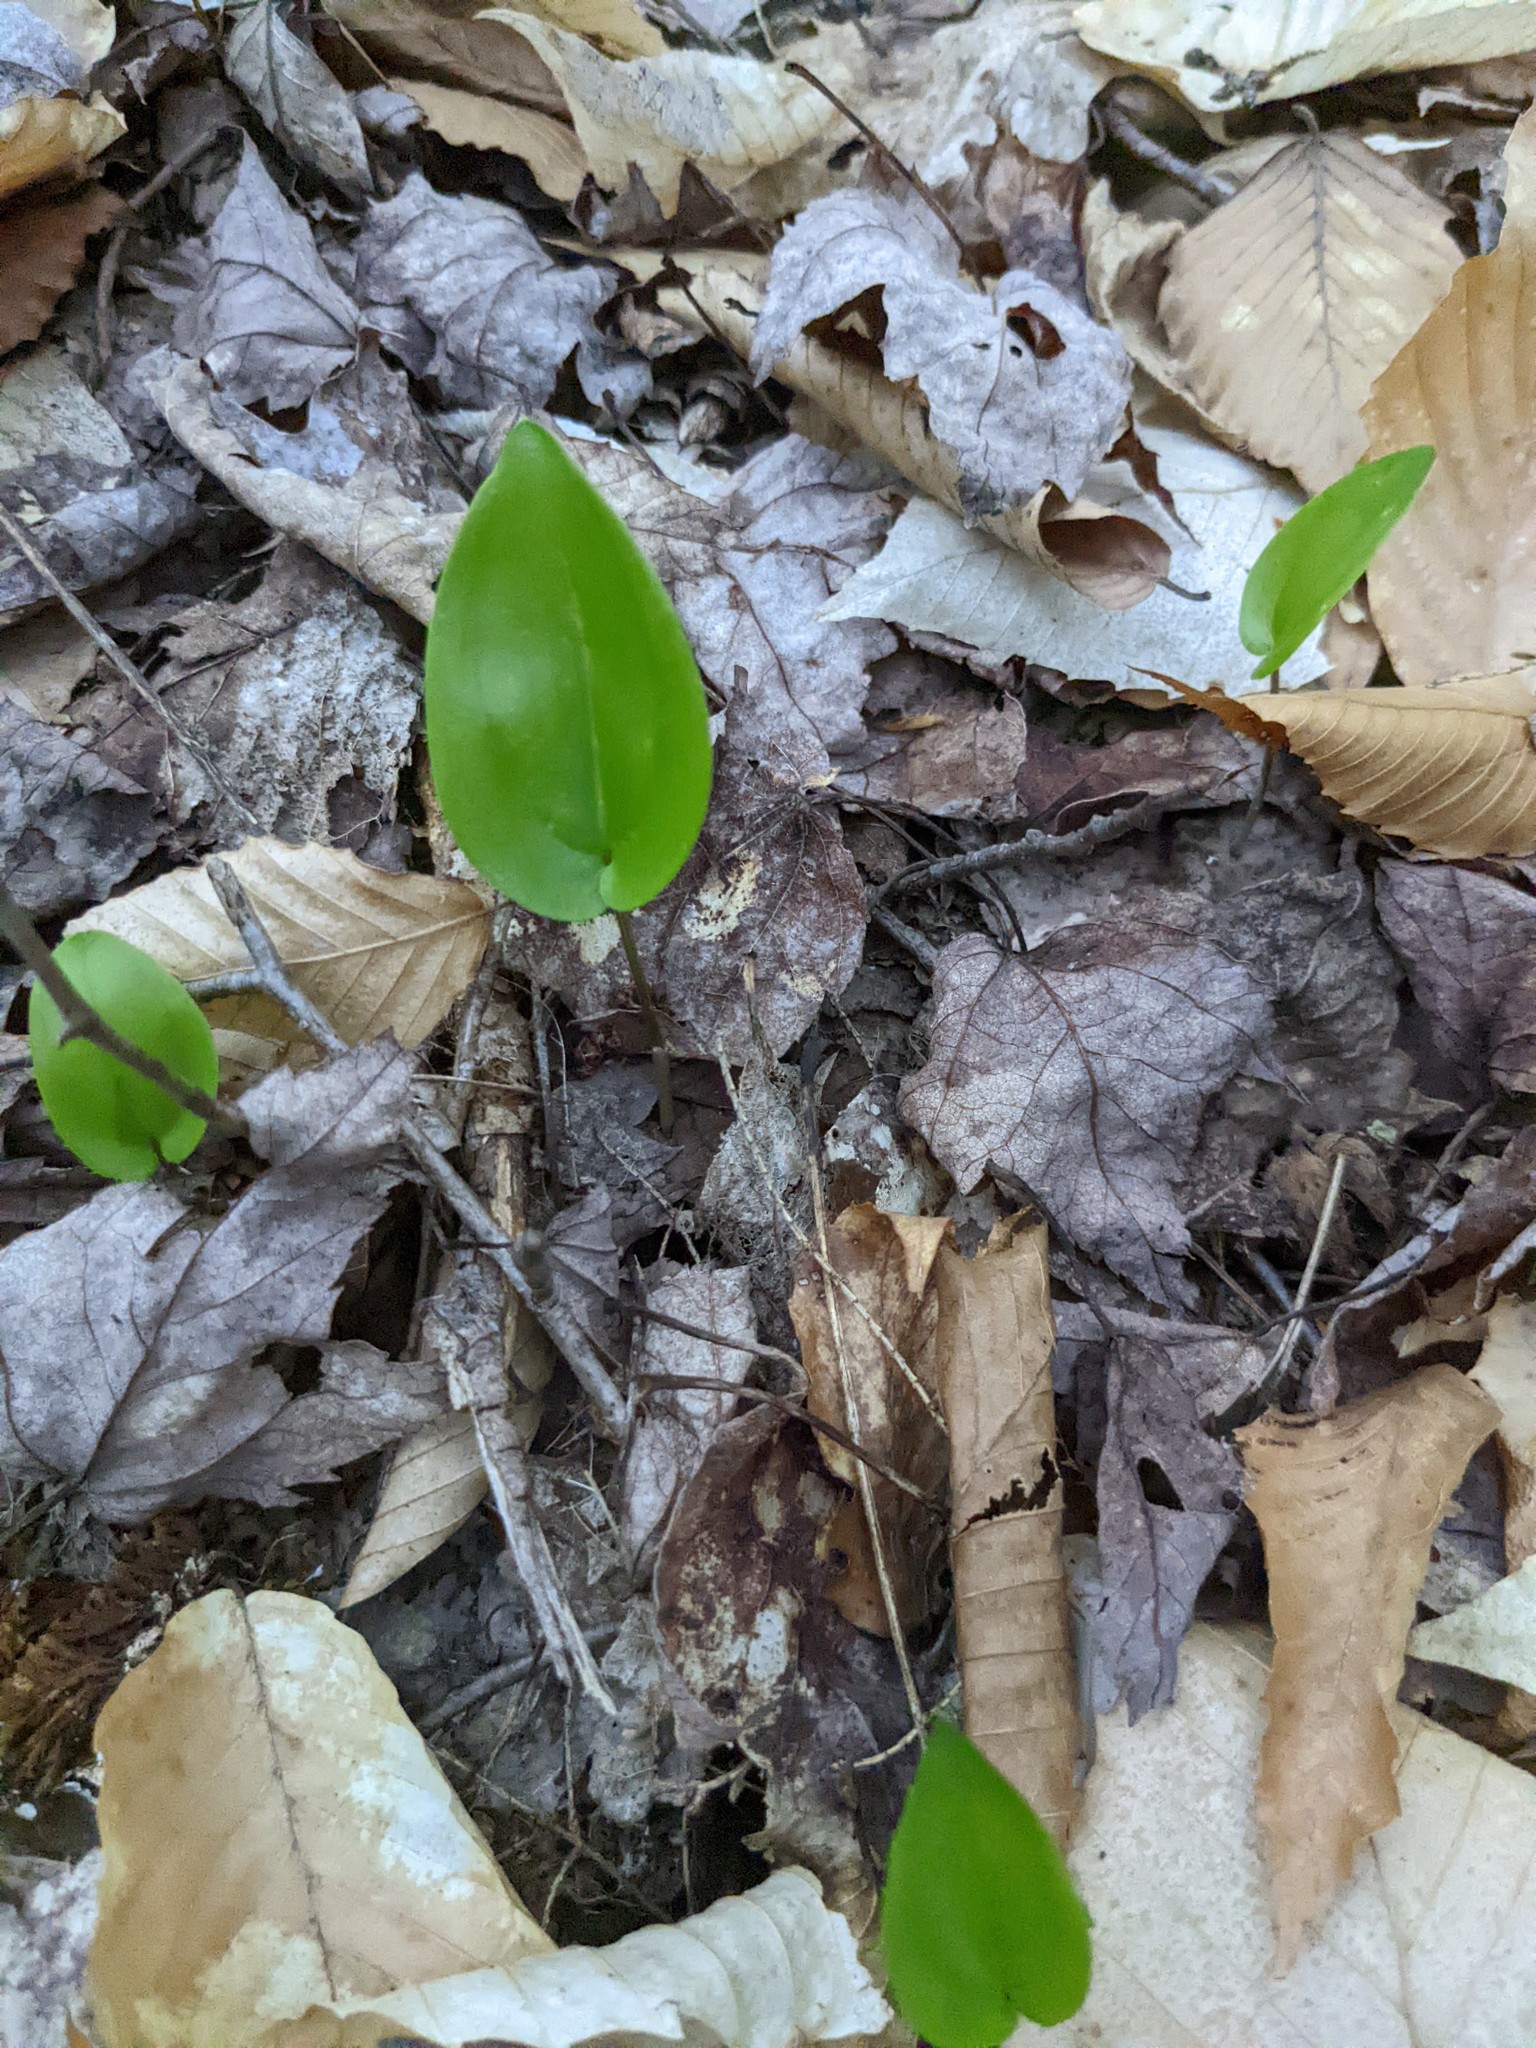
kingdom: Plantae
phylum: Tracheophyta
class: Liliopsida
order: Asparagales
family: Asparagaceae
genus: Maianthemum
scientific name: Maianthemum canadense
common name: False lily-of-the-valley
